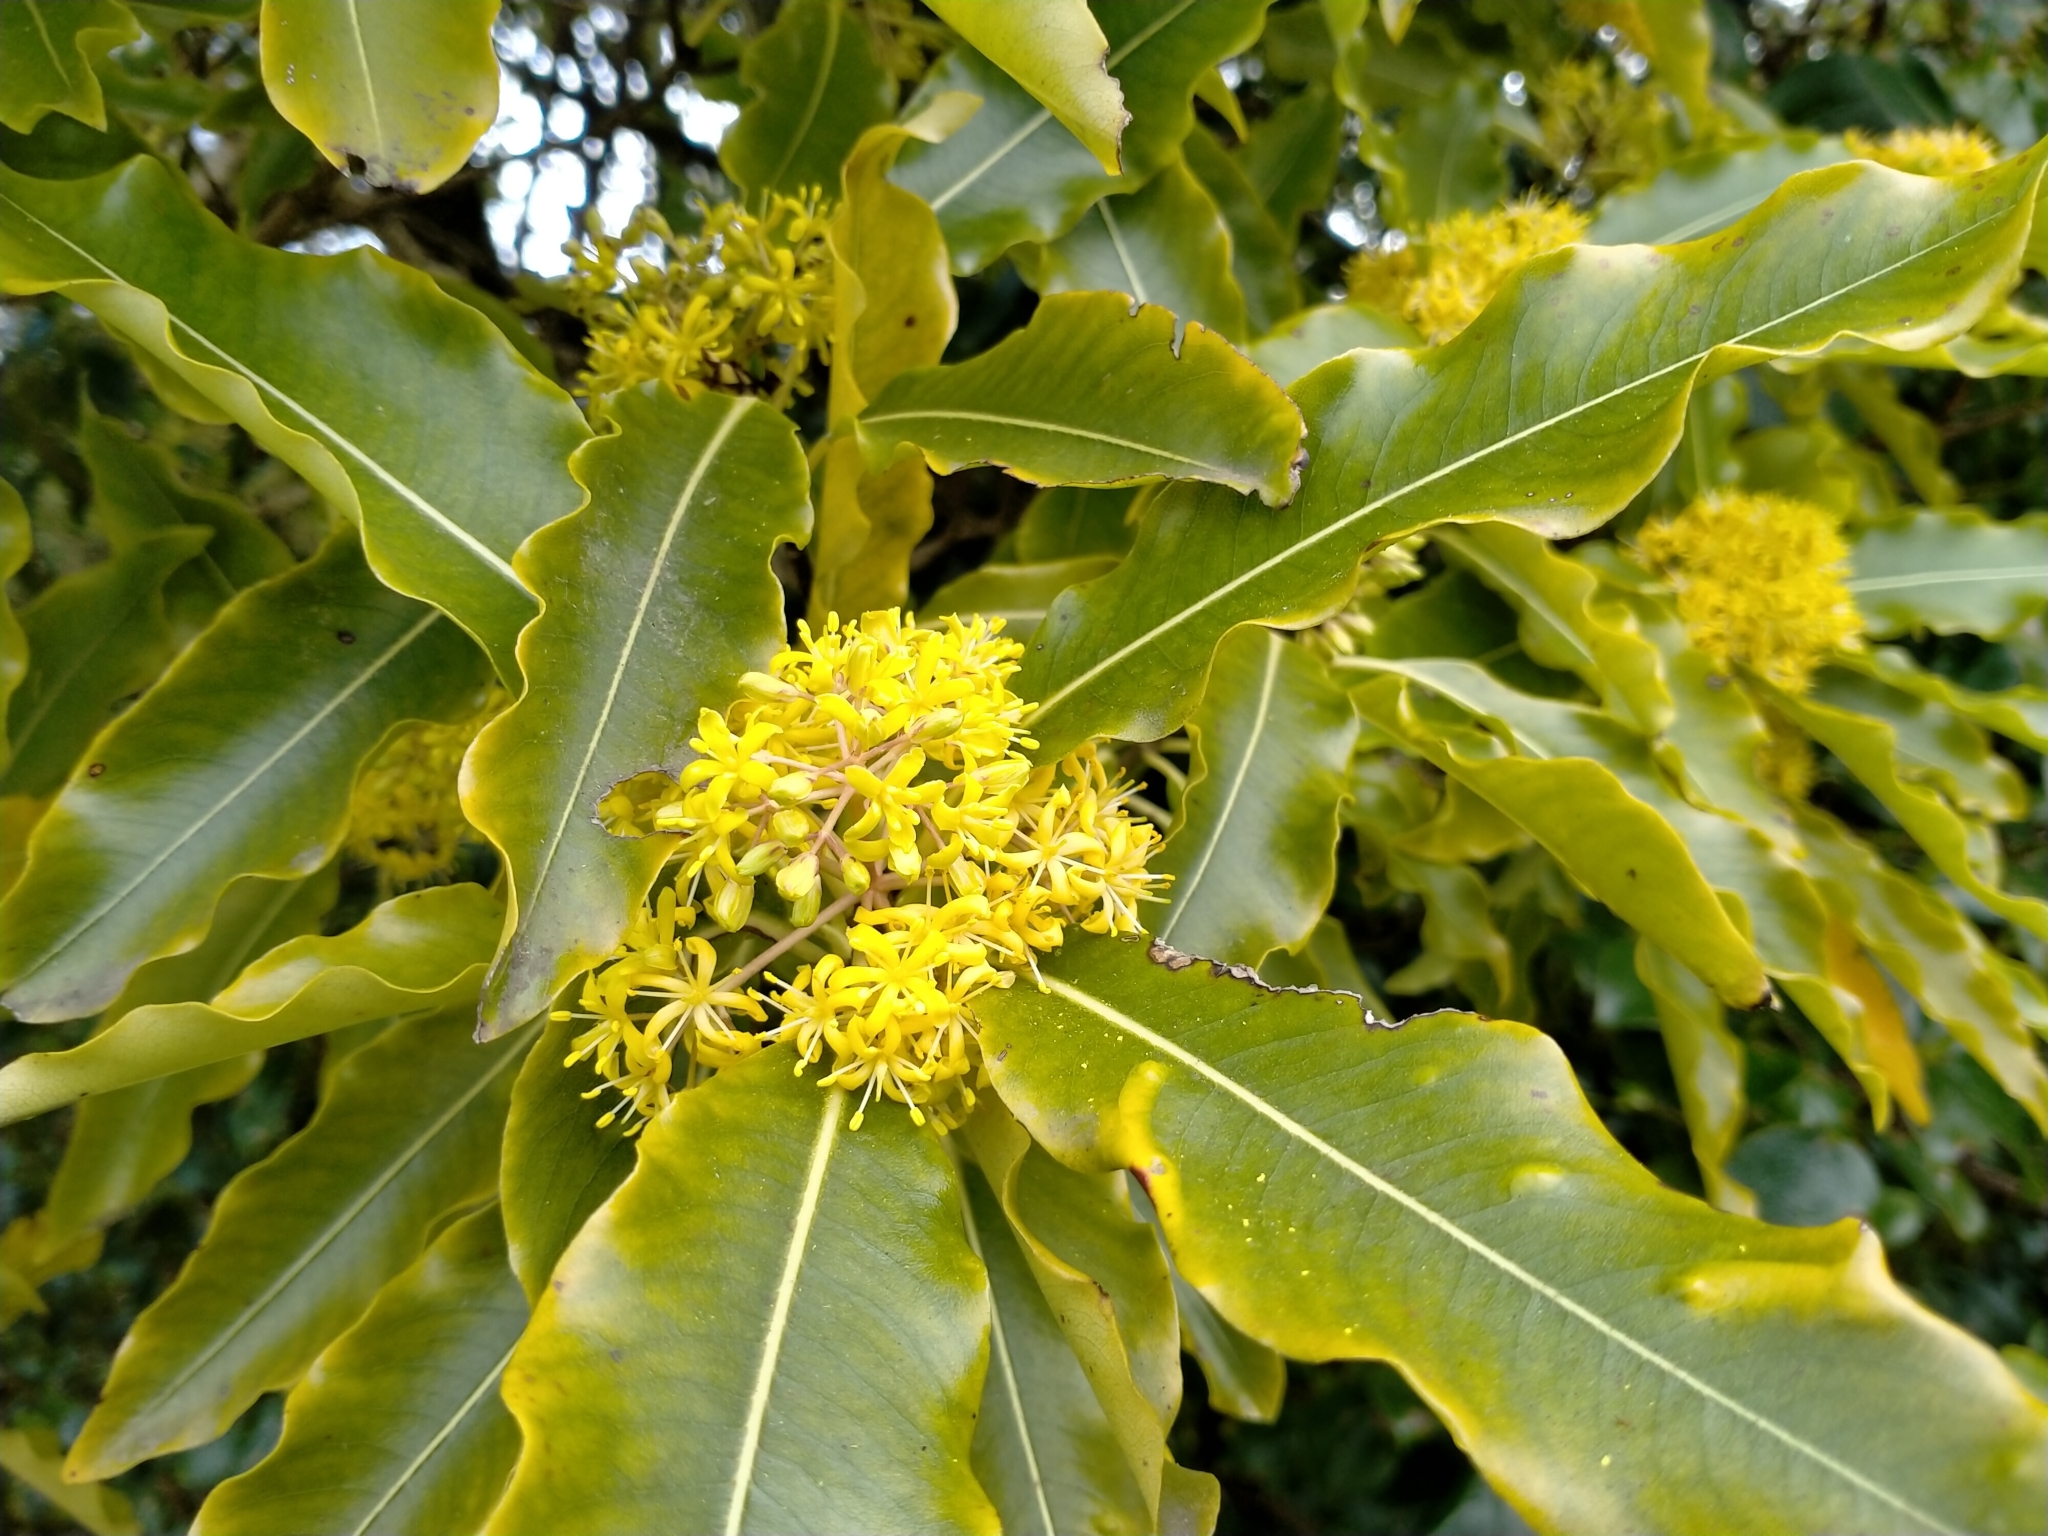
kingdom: Plantae
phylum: Tracheophyta
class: Magnoliopsida
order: Apiales
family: Pittosporaceae
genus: Pittosporum
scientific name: Pittosporum eugenioides
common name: Lemonwood
